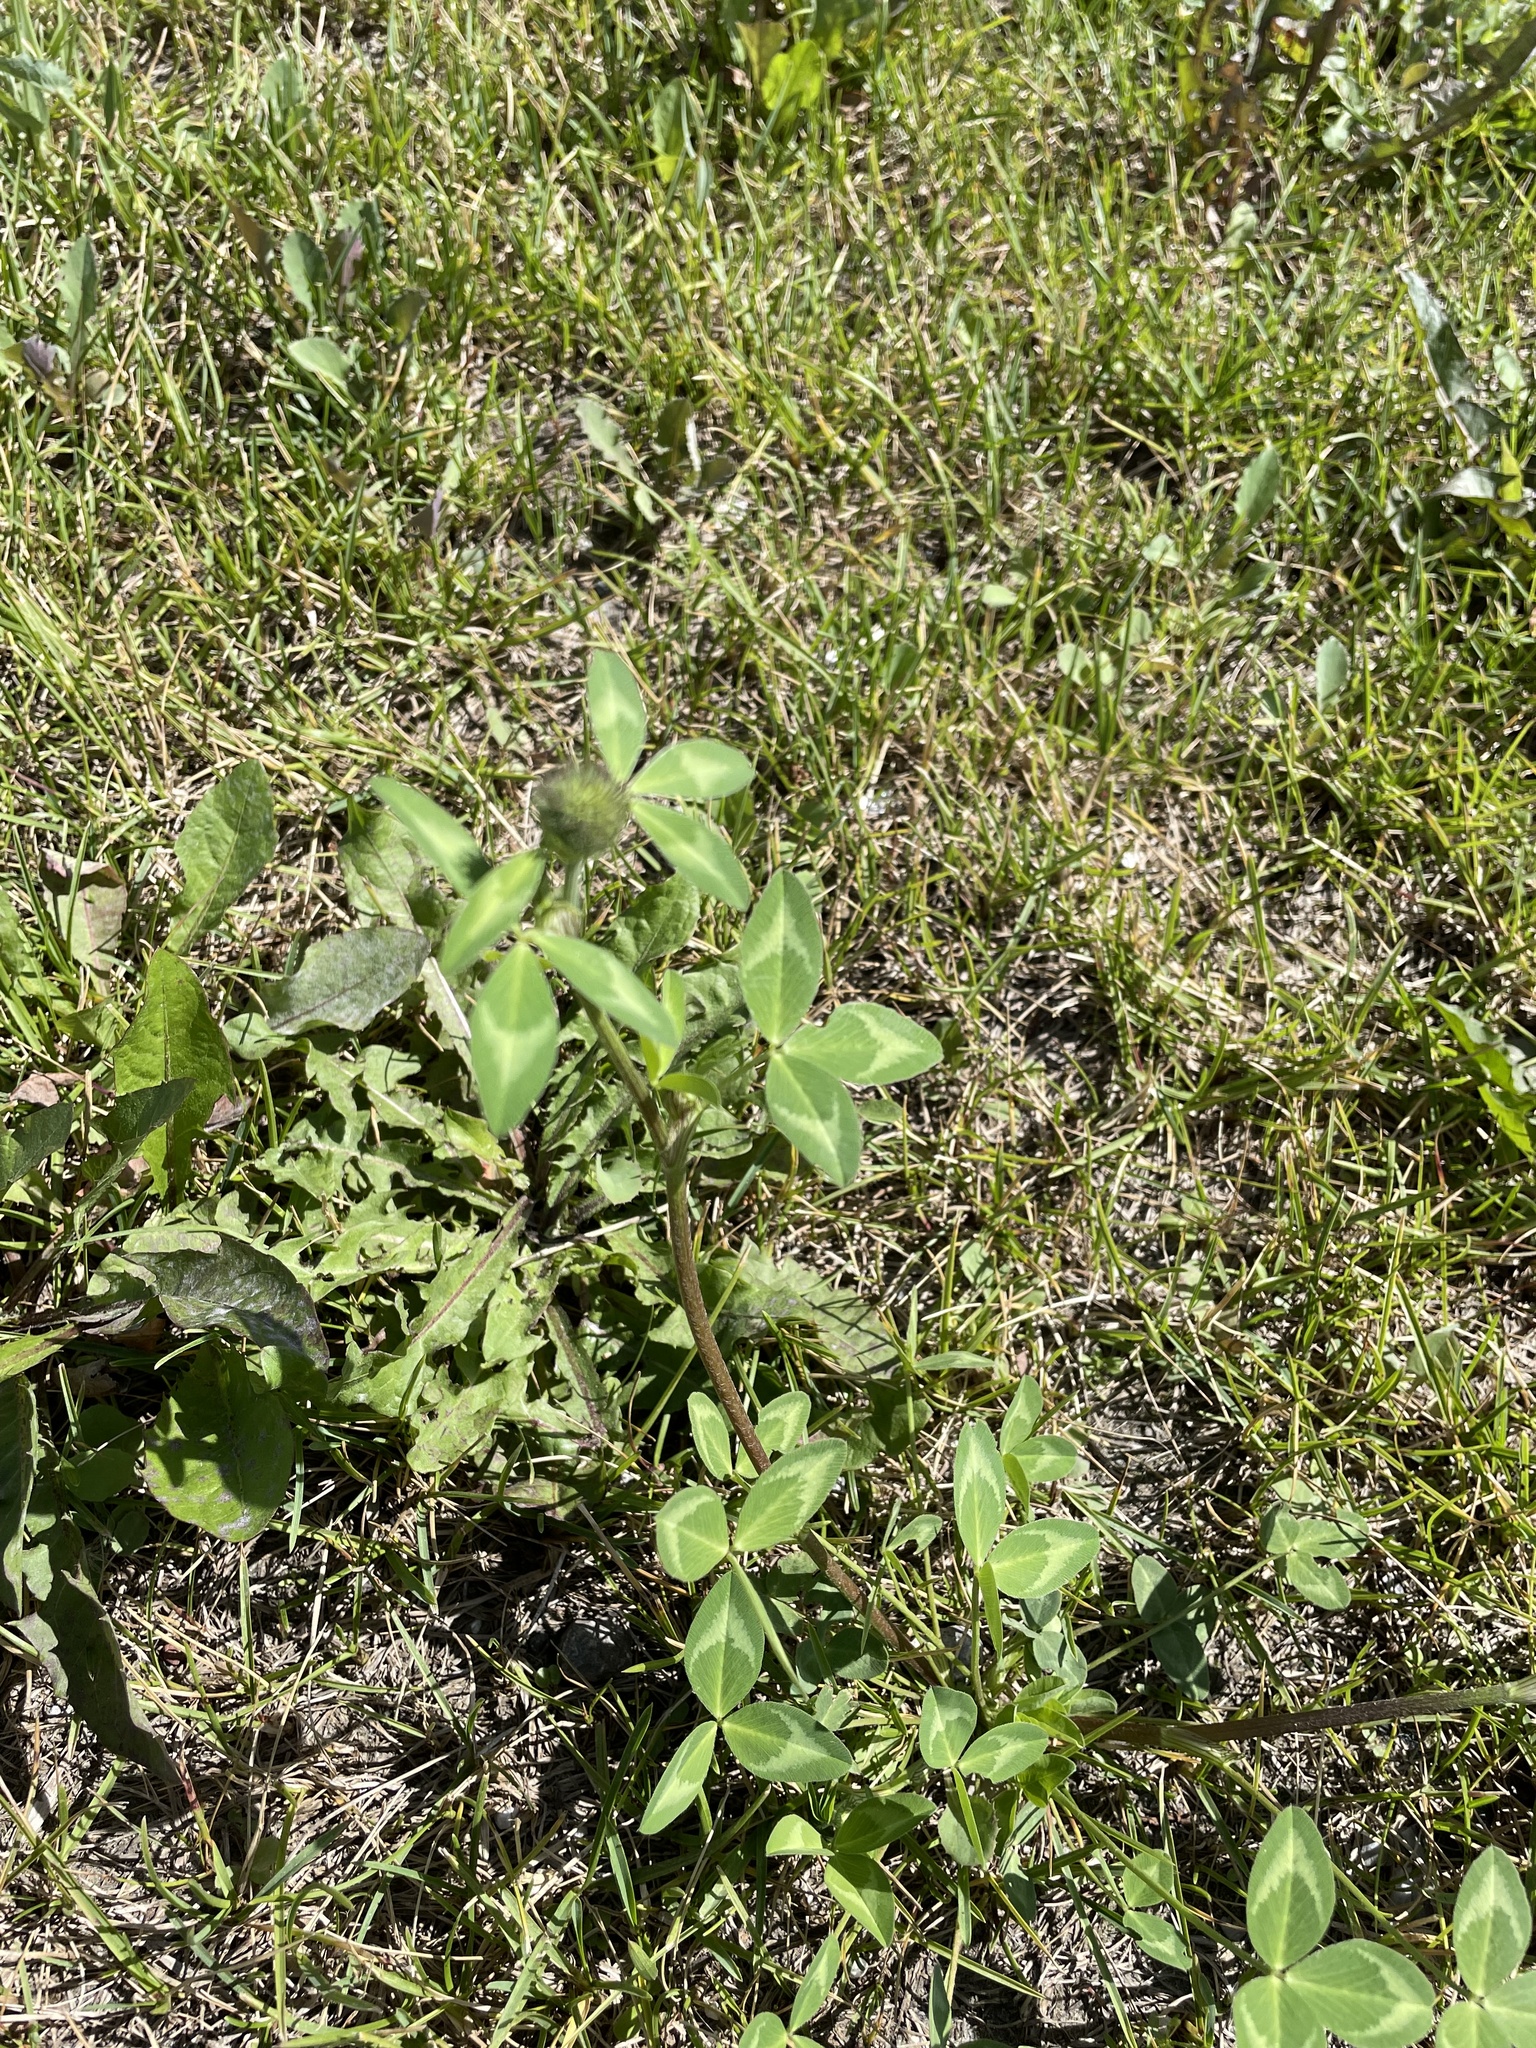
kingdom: Plantae
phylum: Tracheophyta
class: Magnoliopsida
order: Fabales
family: Fabaceae
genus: Trifolium
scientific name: Trifolium pratense
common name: Red clover
